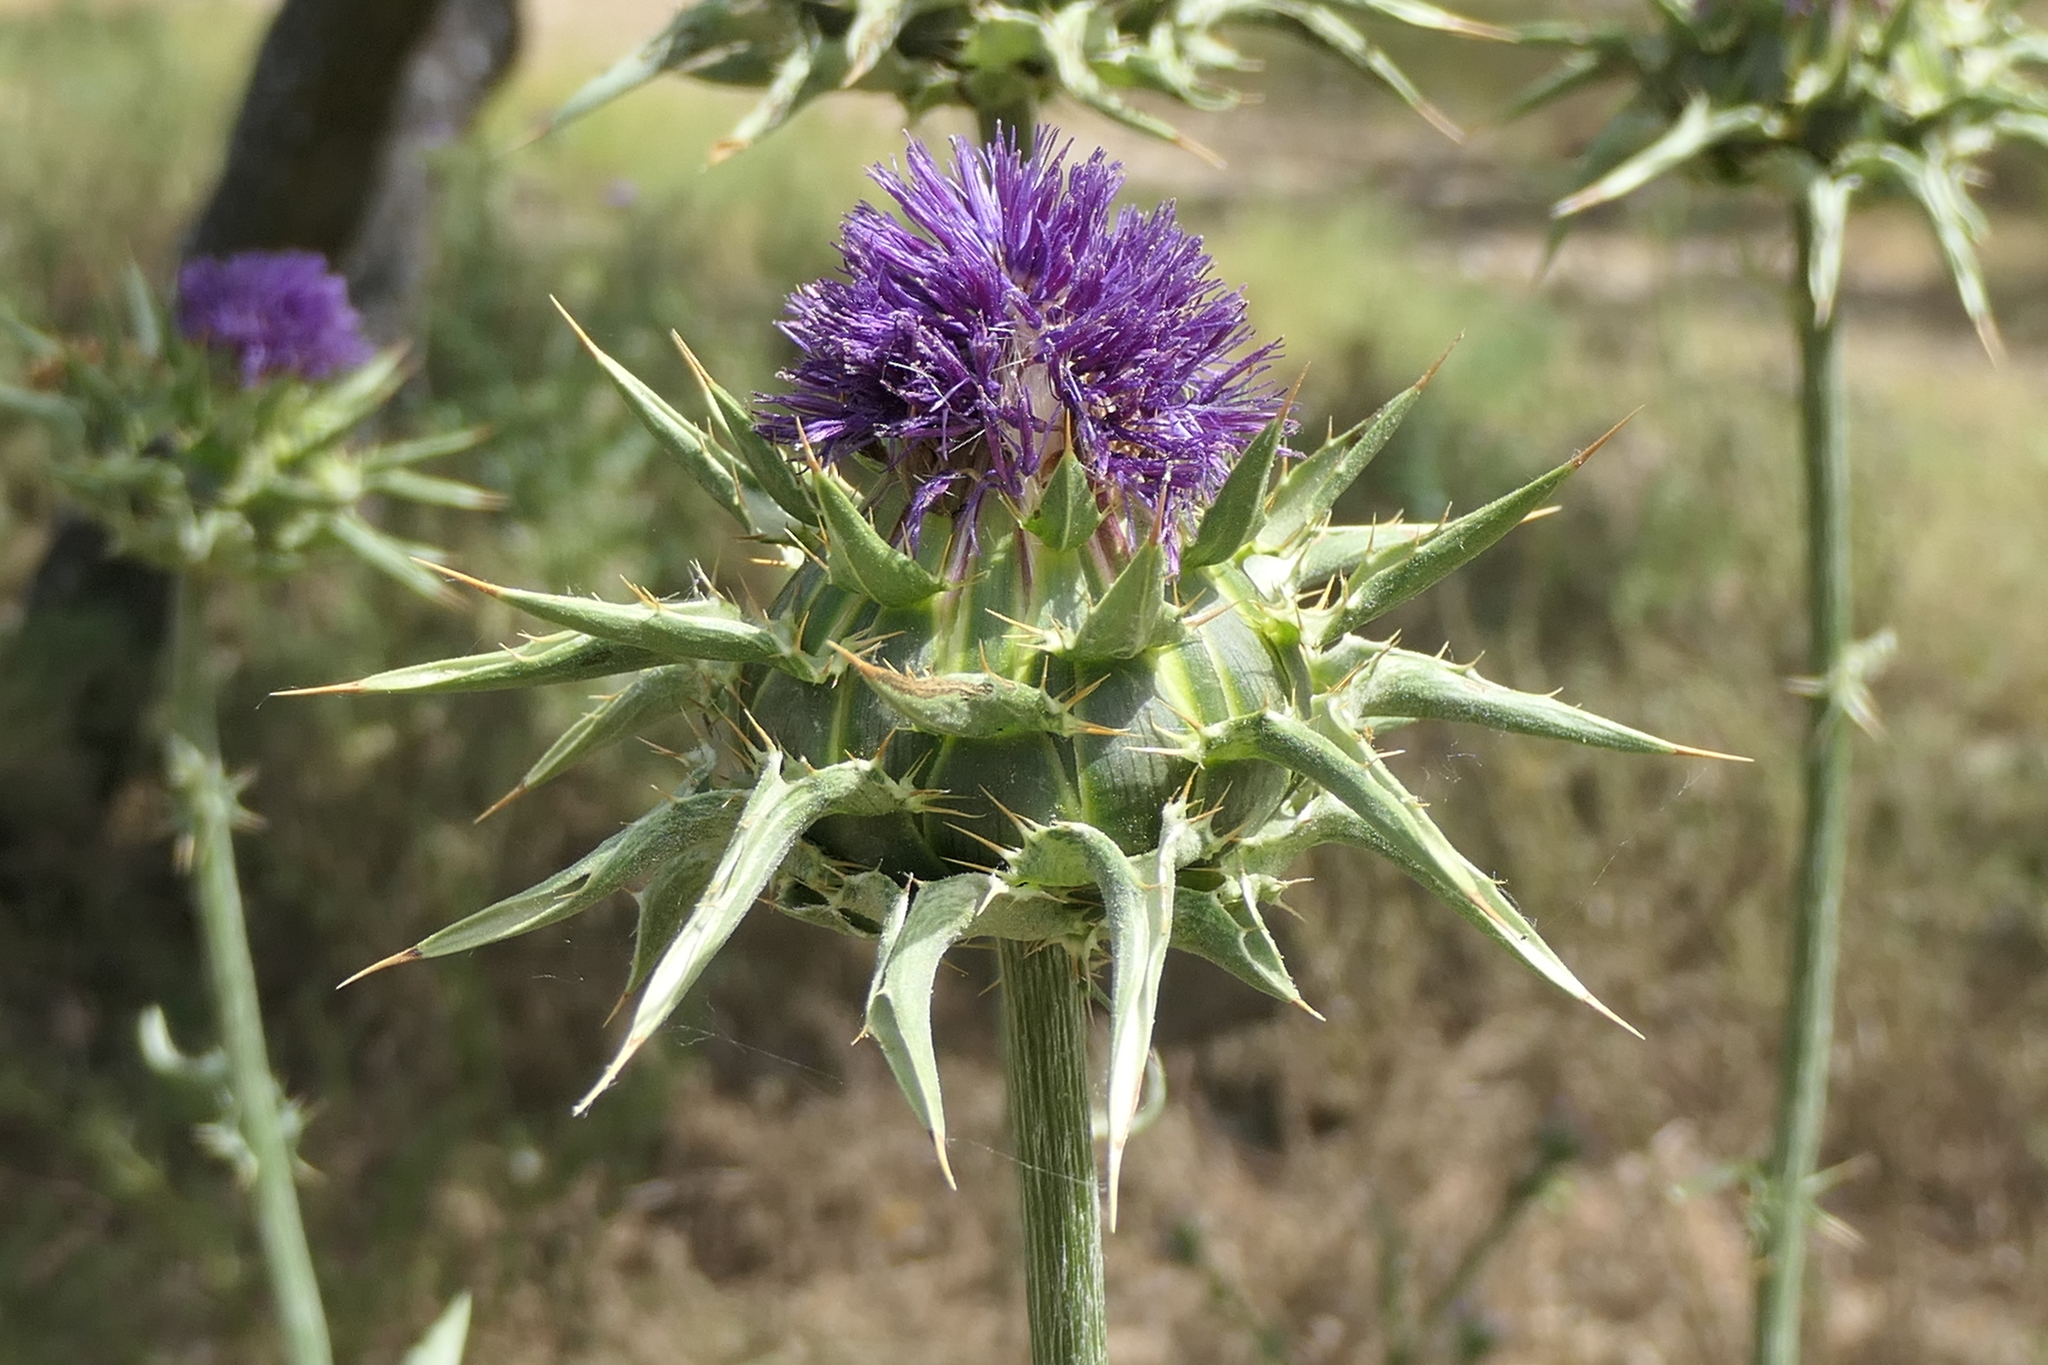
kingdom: Plantae
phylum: Tracheophyta
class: Magnoliopsida
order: Asterales
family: Asteraceae
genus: Silybum
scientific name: Silybum marianum
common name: Milk thistle
